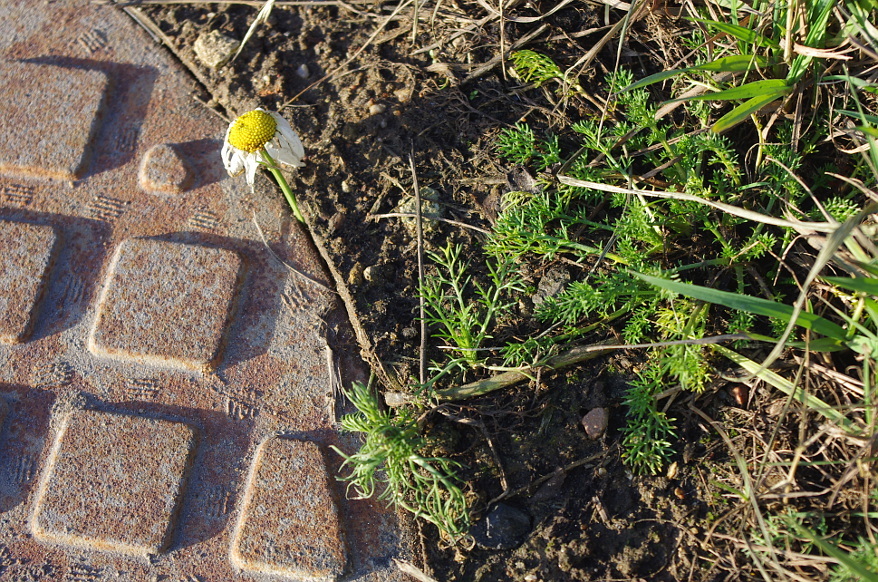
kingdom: Plantae
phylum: Tracheophyta
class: Magnoliopsida
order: Asterales
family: Asteraceae
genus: Tripleurospermum
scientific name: Tripleurospermum inodorum
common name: Scentless mayweed
